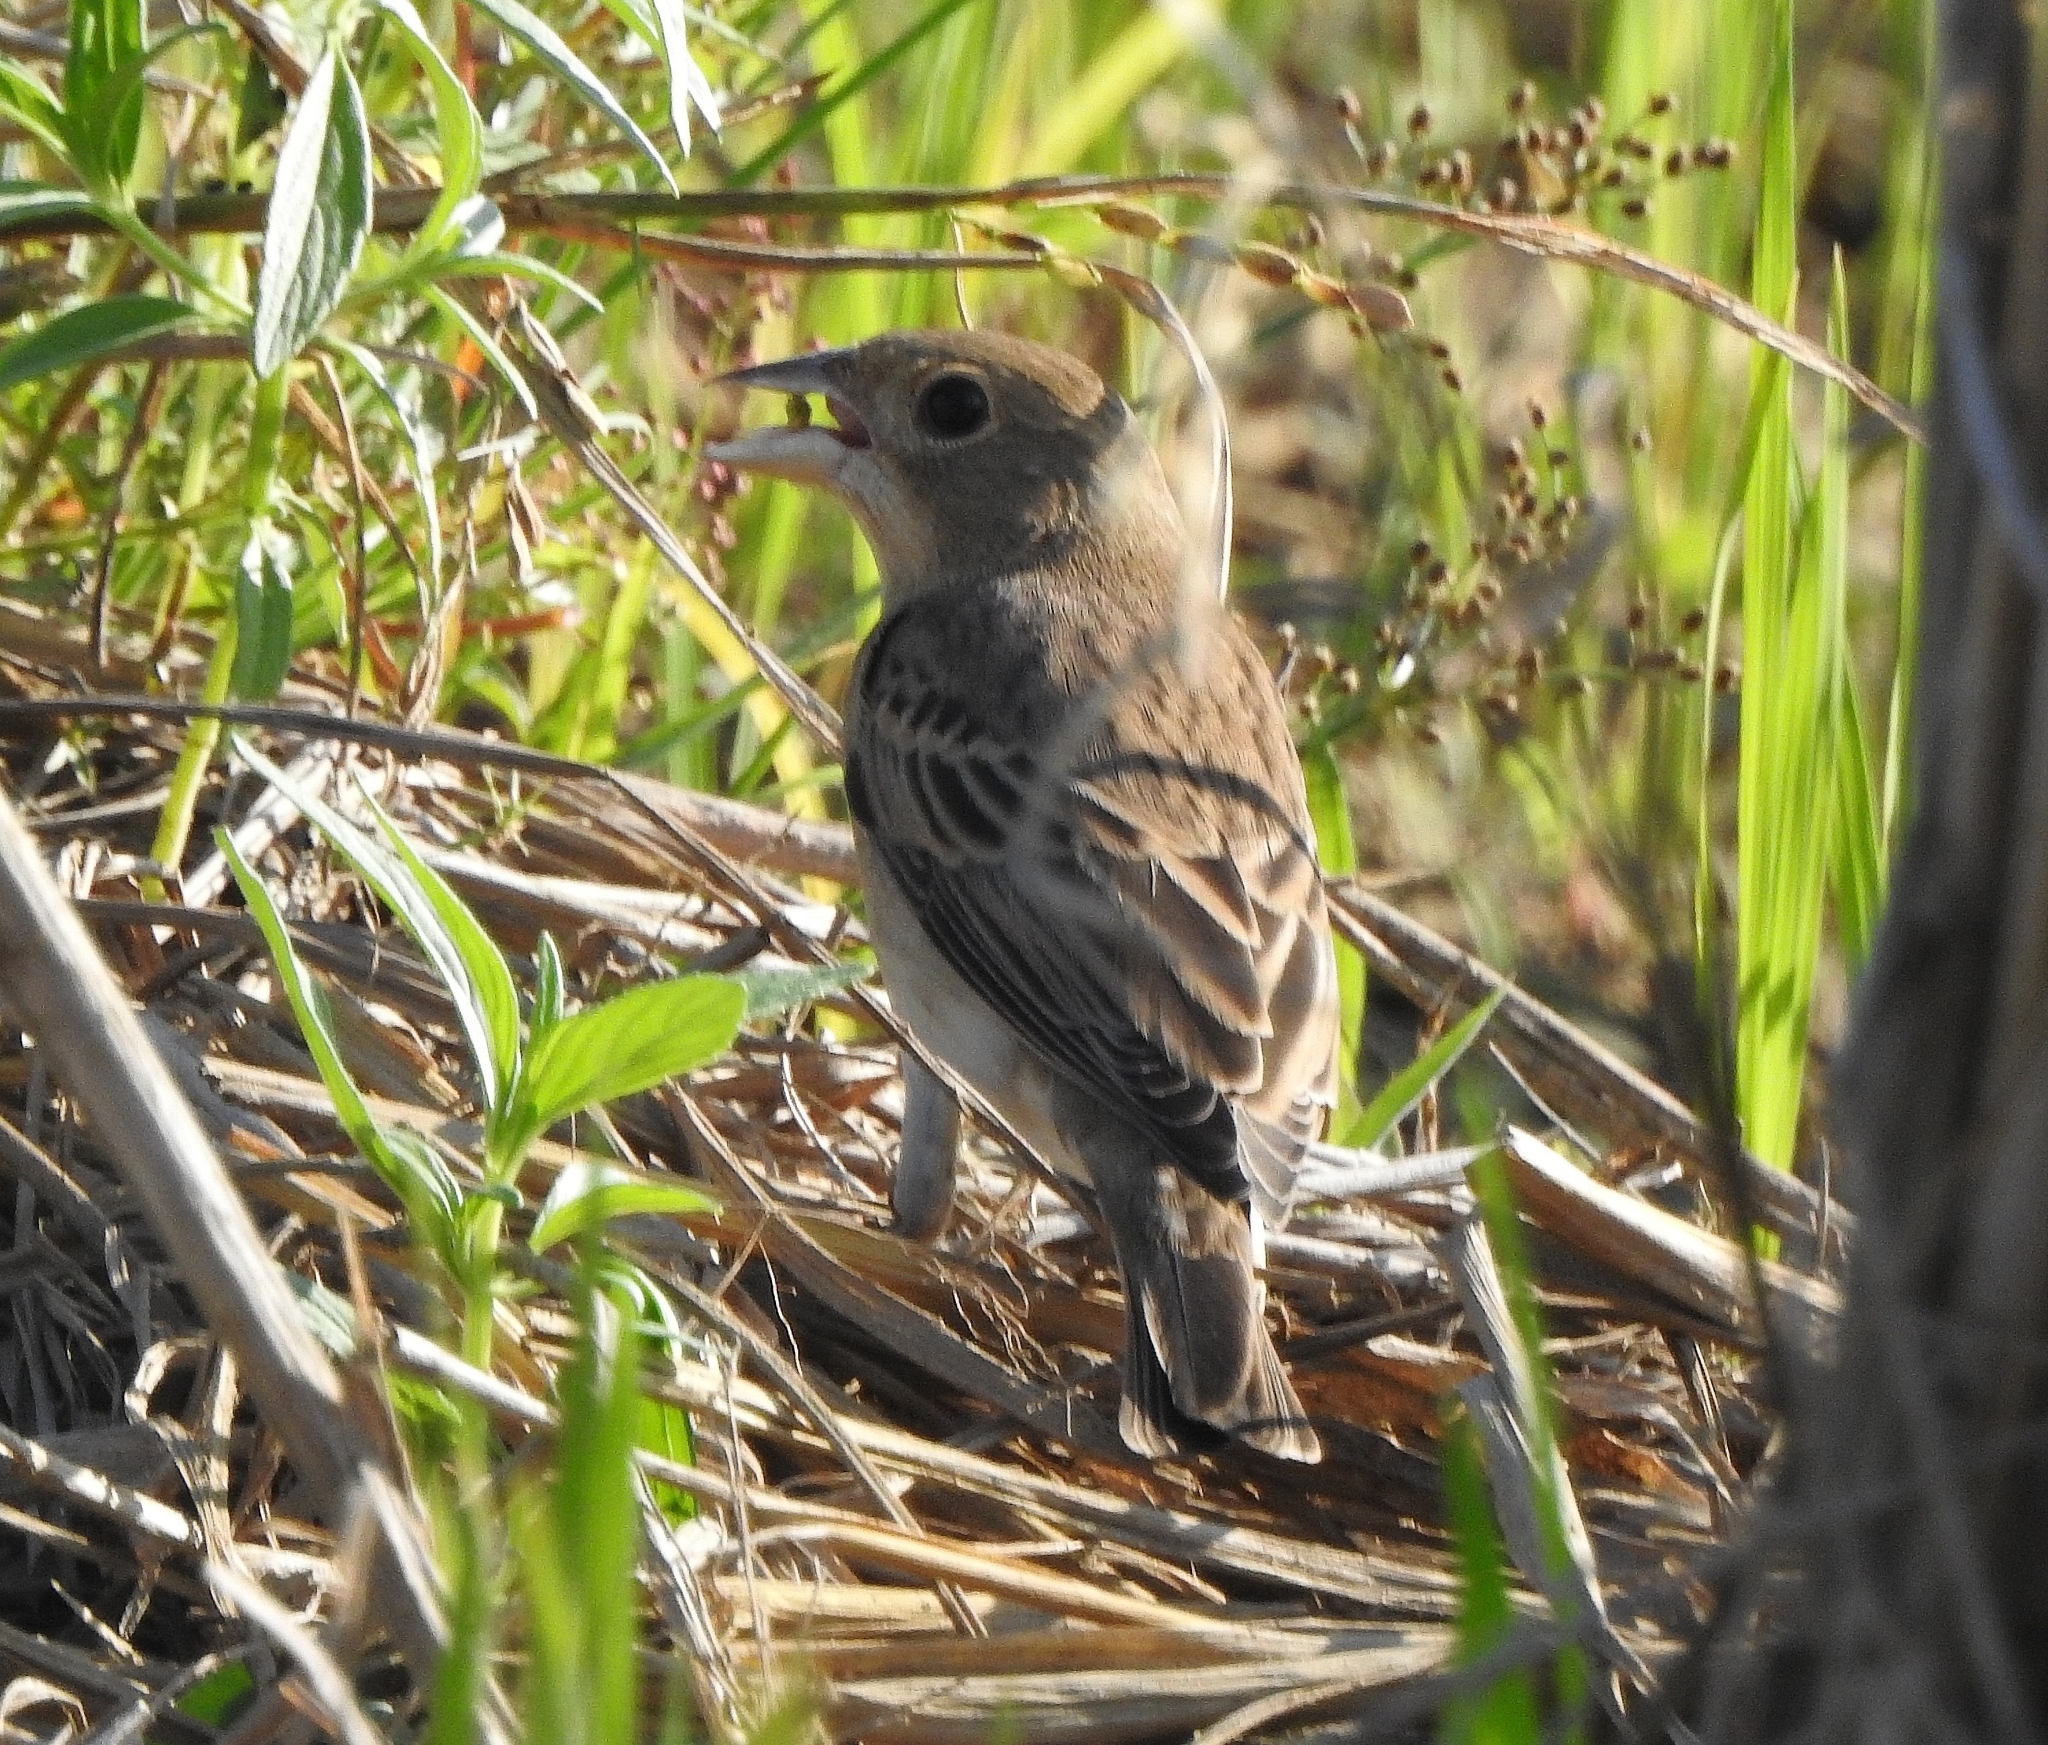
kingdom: Animalia
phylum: Chordata
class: Aves
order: Passeriformes
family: Emberizidae
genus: Emberiza
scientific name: Emberiza bruniceps
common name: Red-headed bunting
